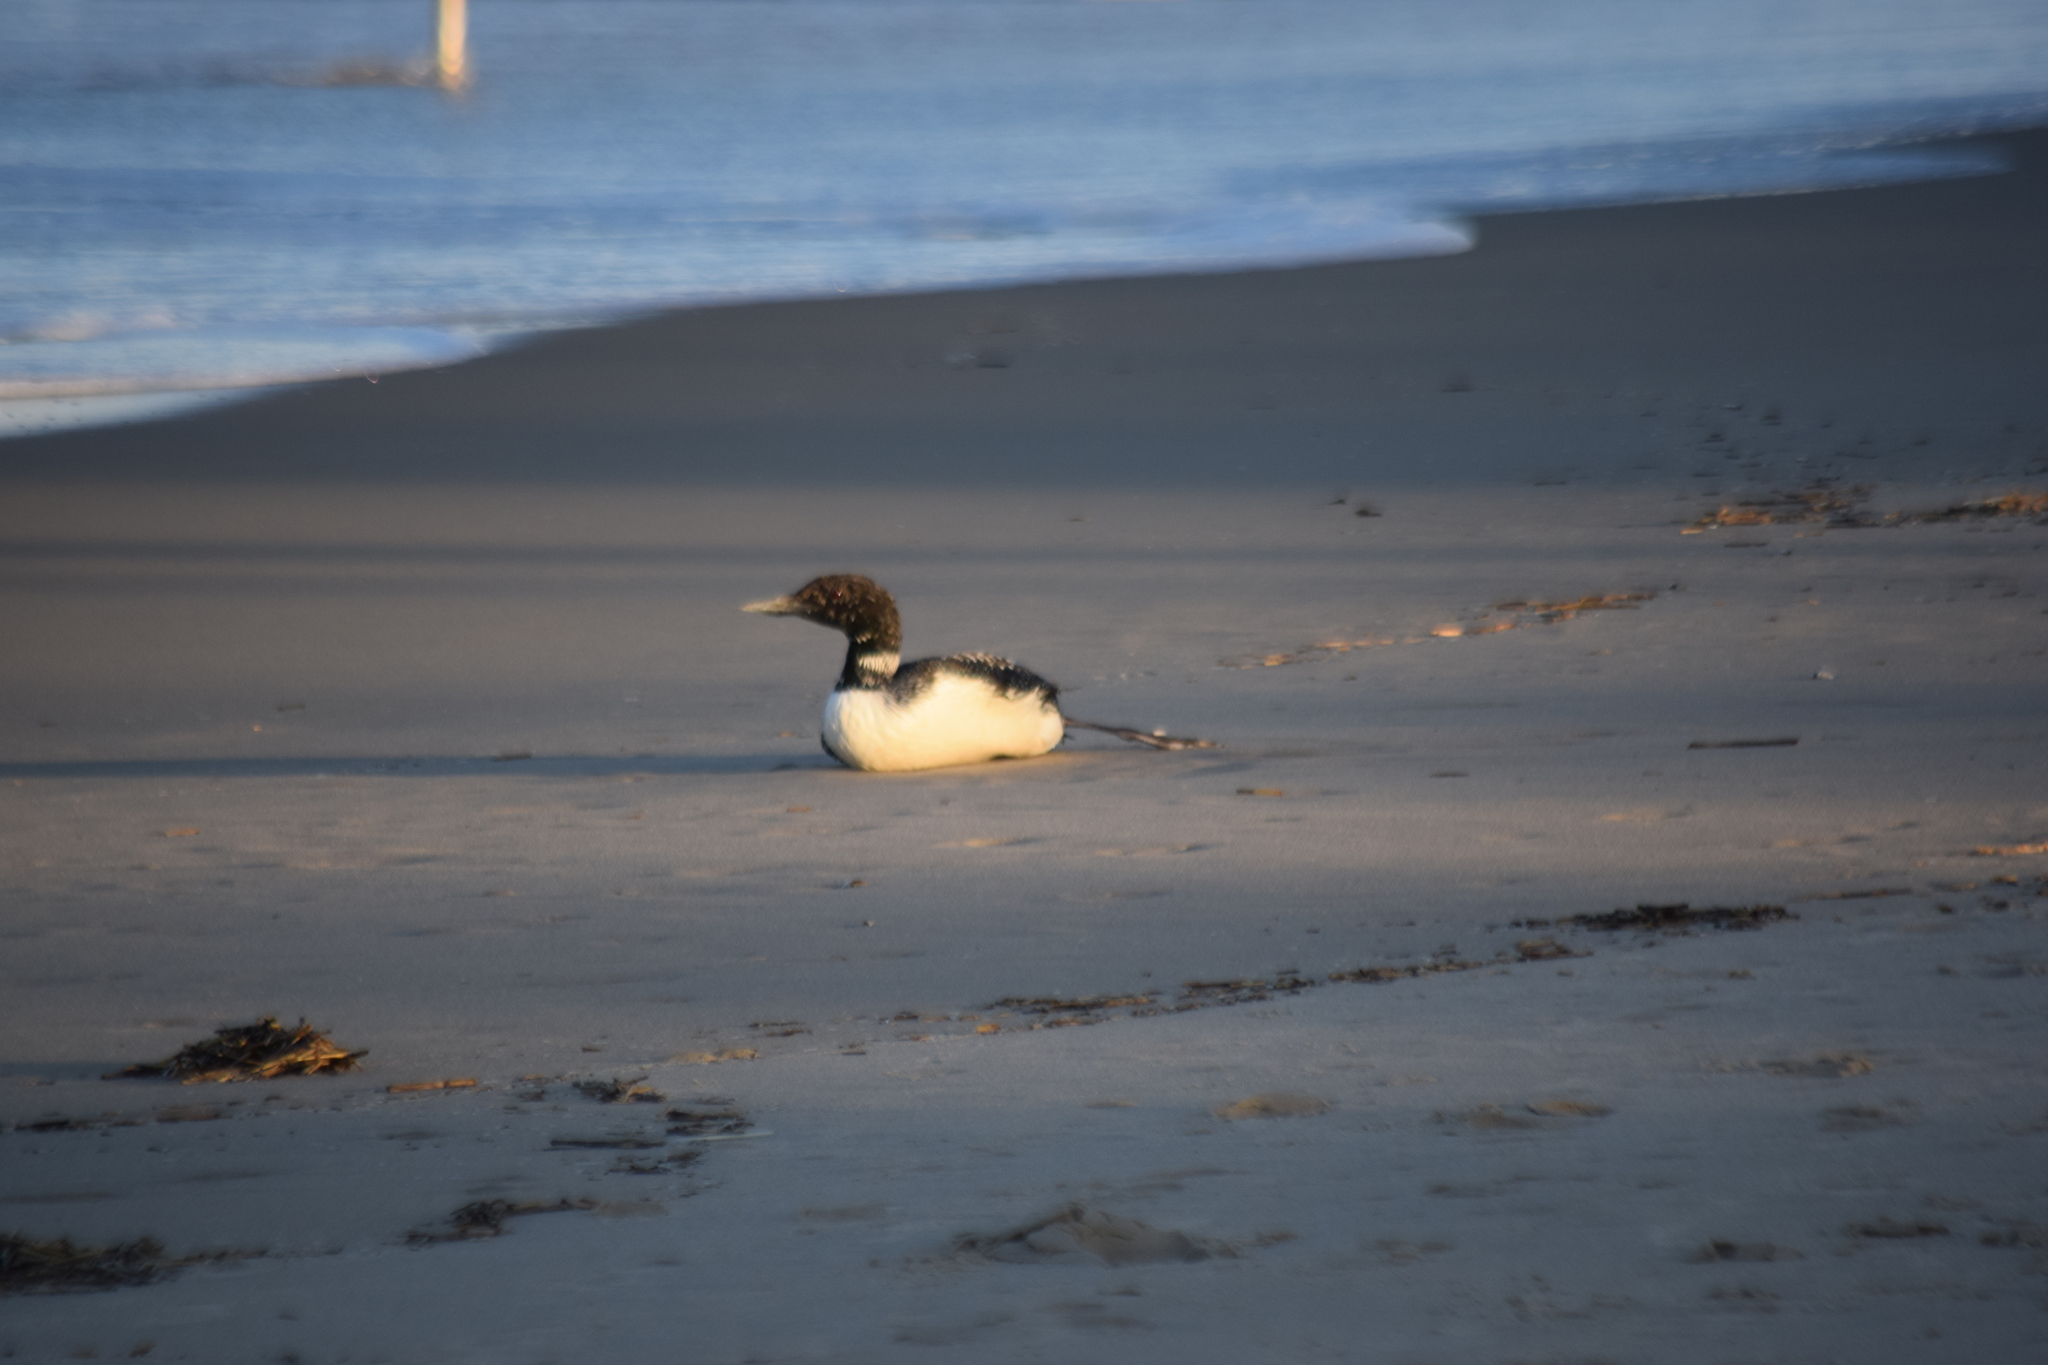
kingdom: Animalia
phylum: Chordata
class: Aves
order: Gaviiformes
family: Gaviidae
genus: Gavia
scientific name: Gavia immer
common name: Common loon
